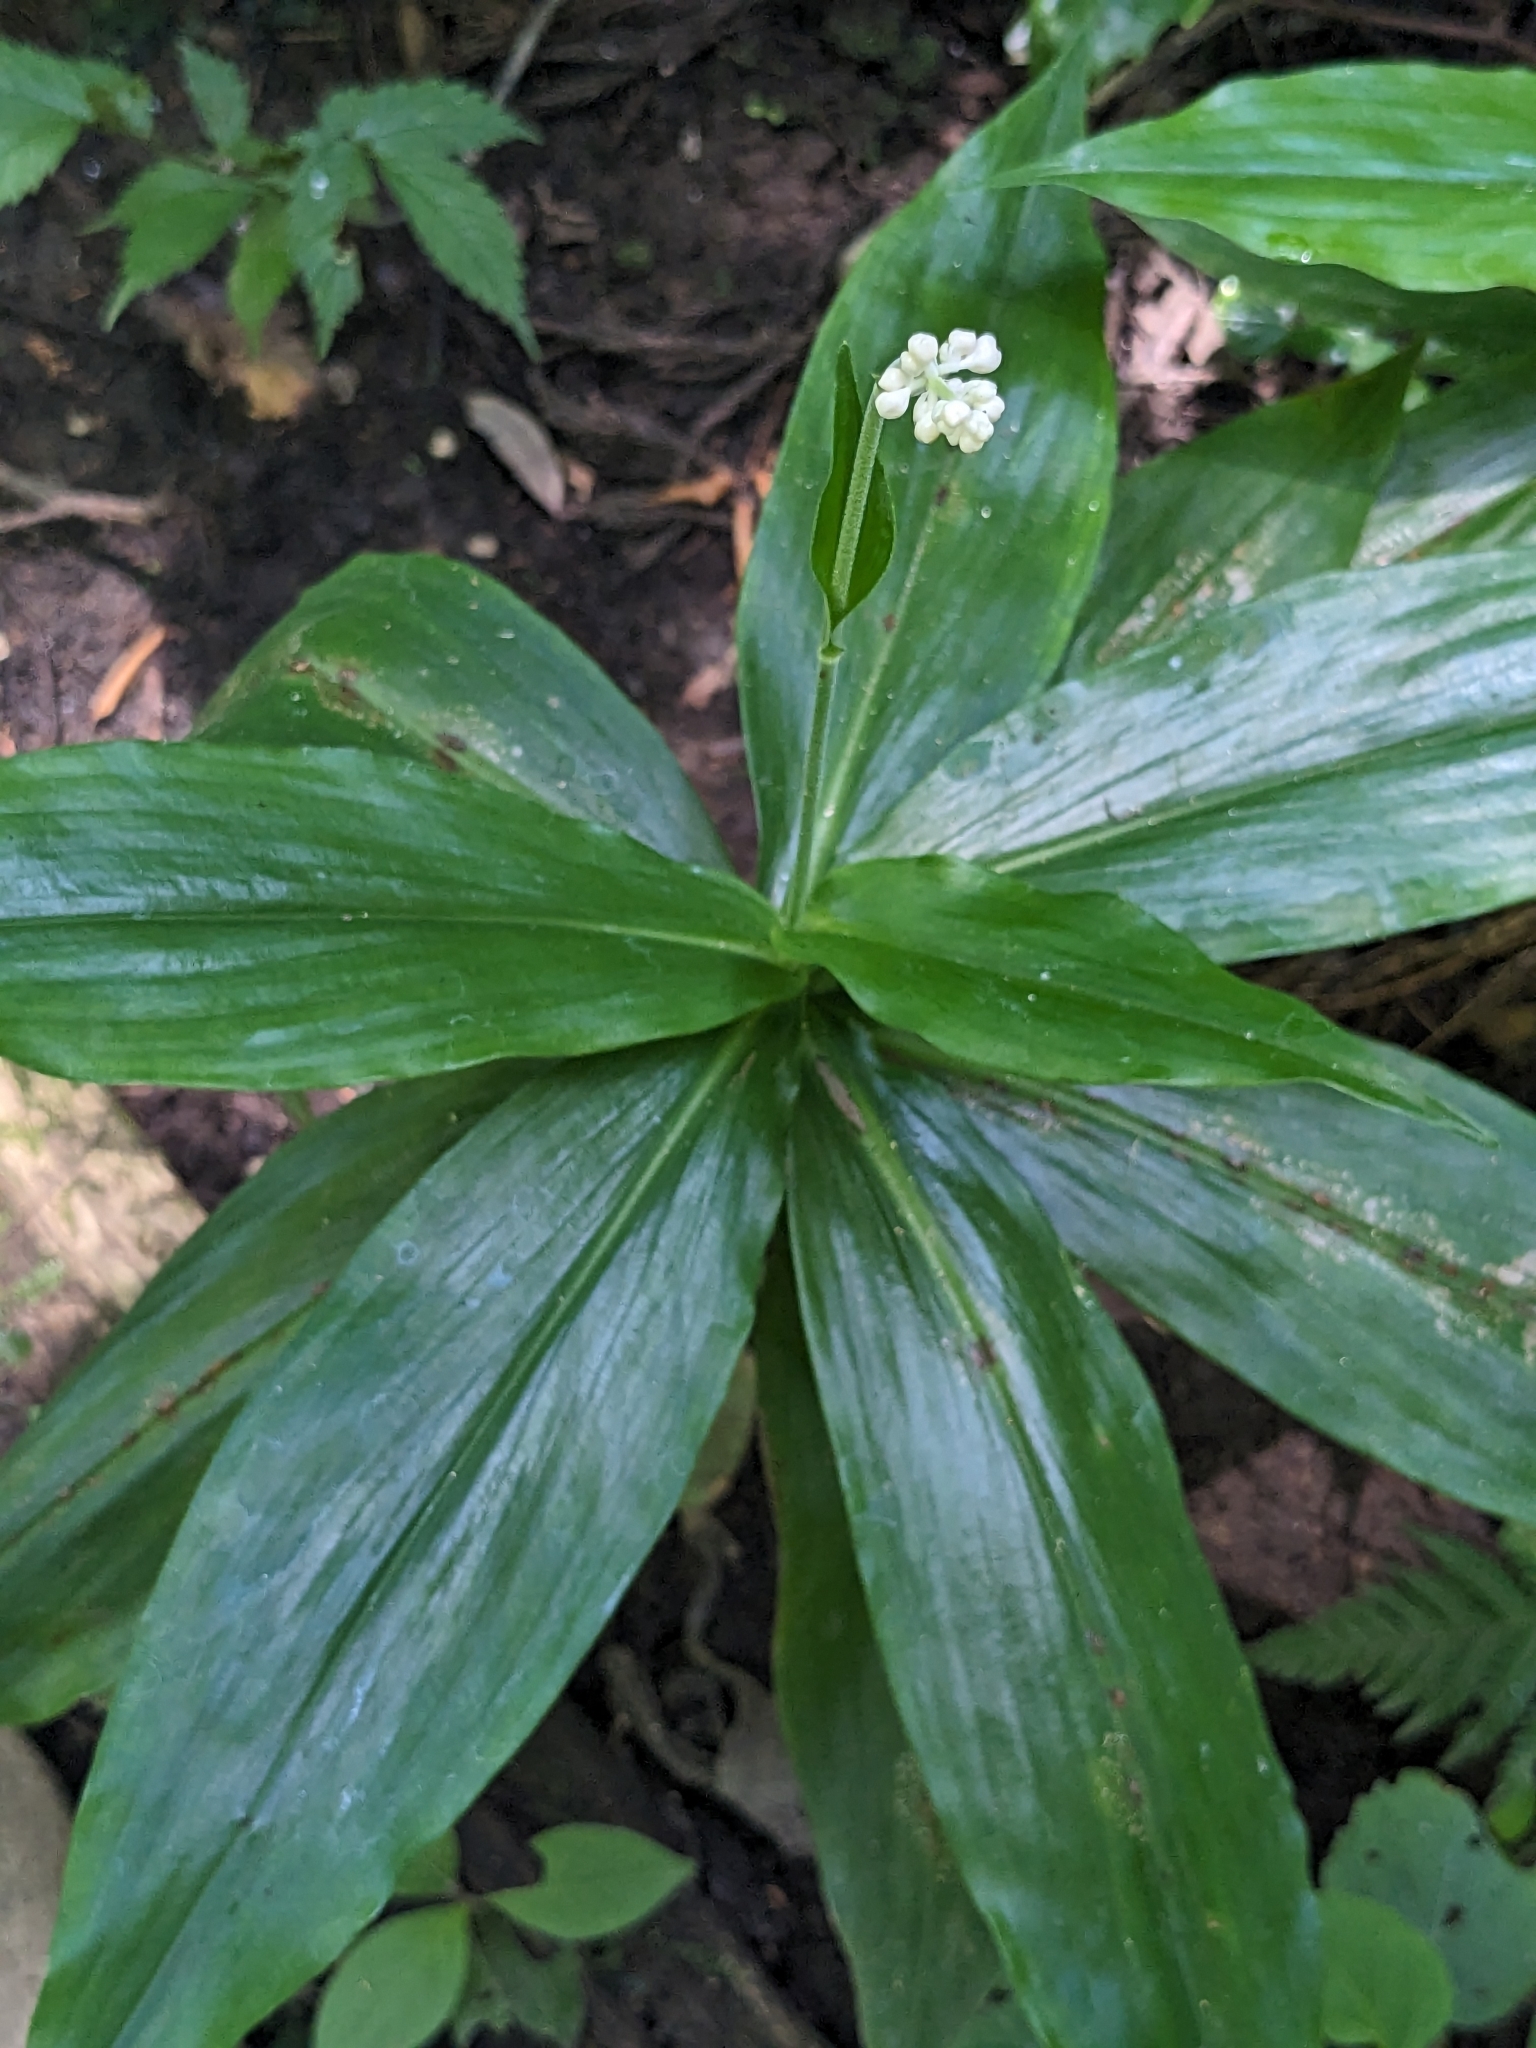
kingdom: Plantae
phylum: Tracheophyta
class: Liliopsida
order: Commelinales
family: Commelinaceae
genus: Pollia
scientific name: Pollia japonica
